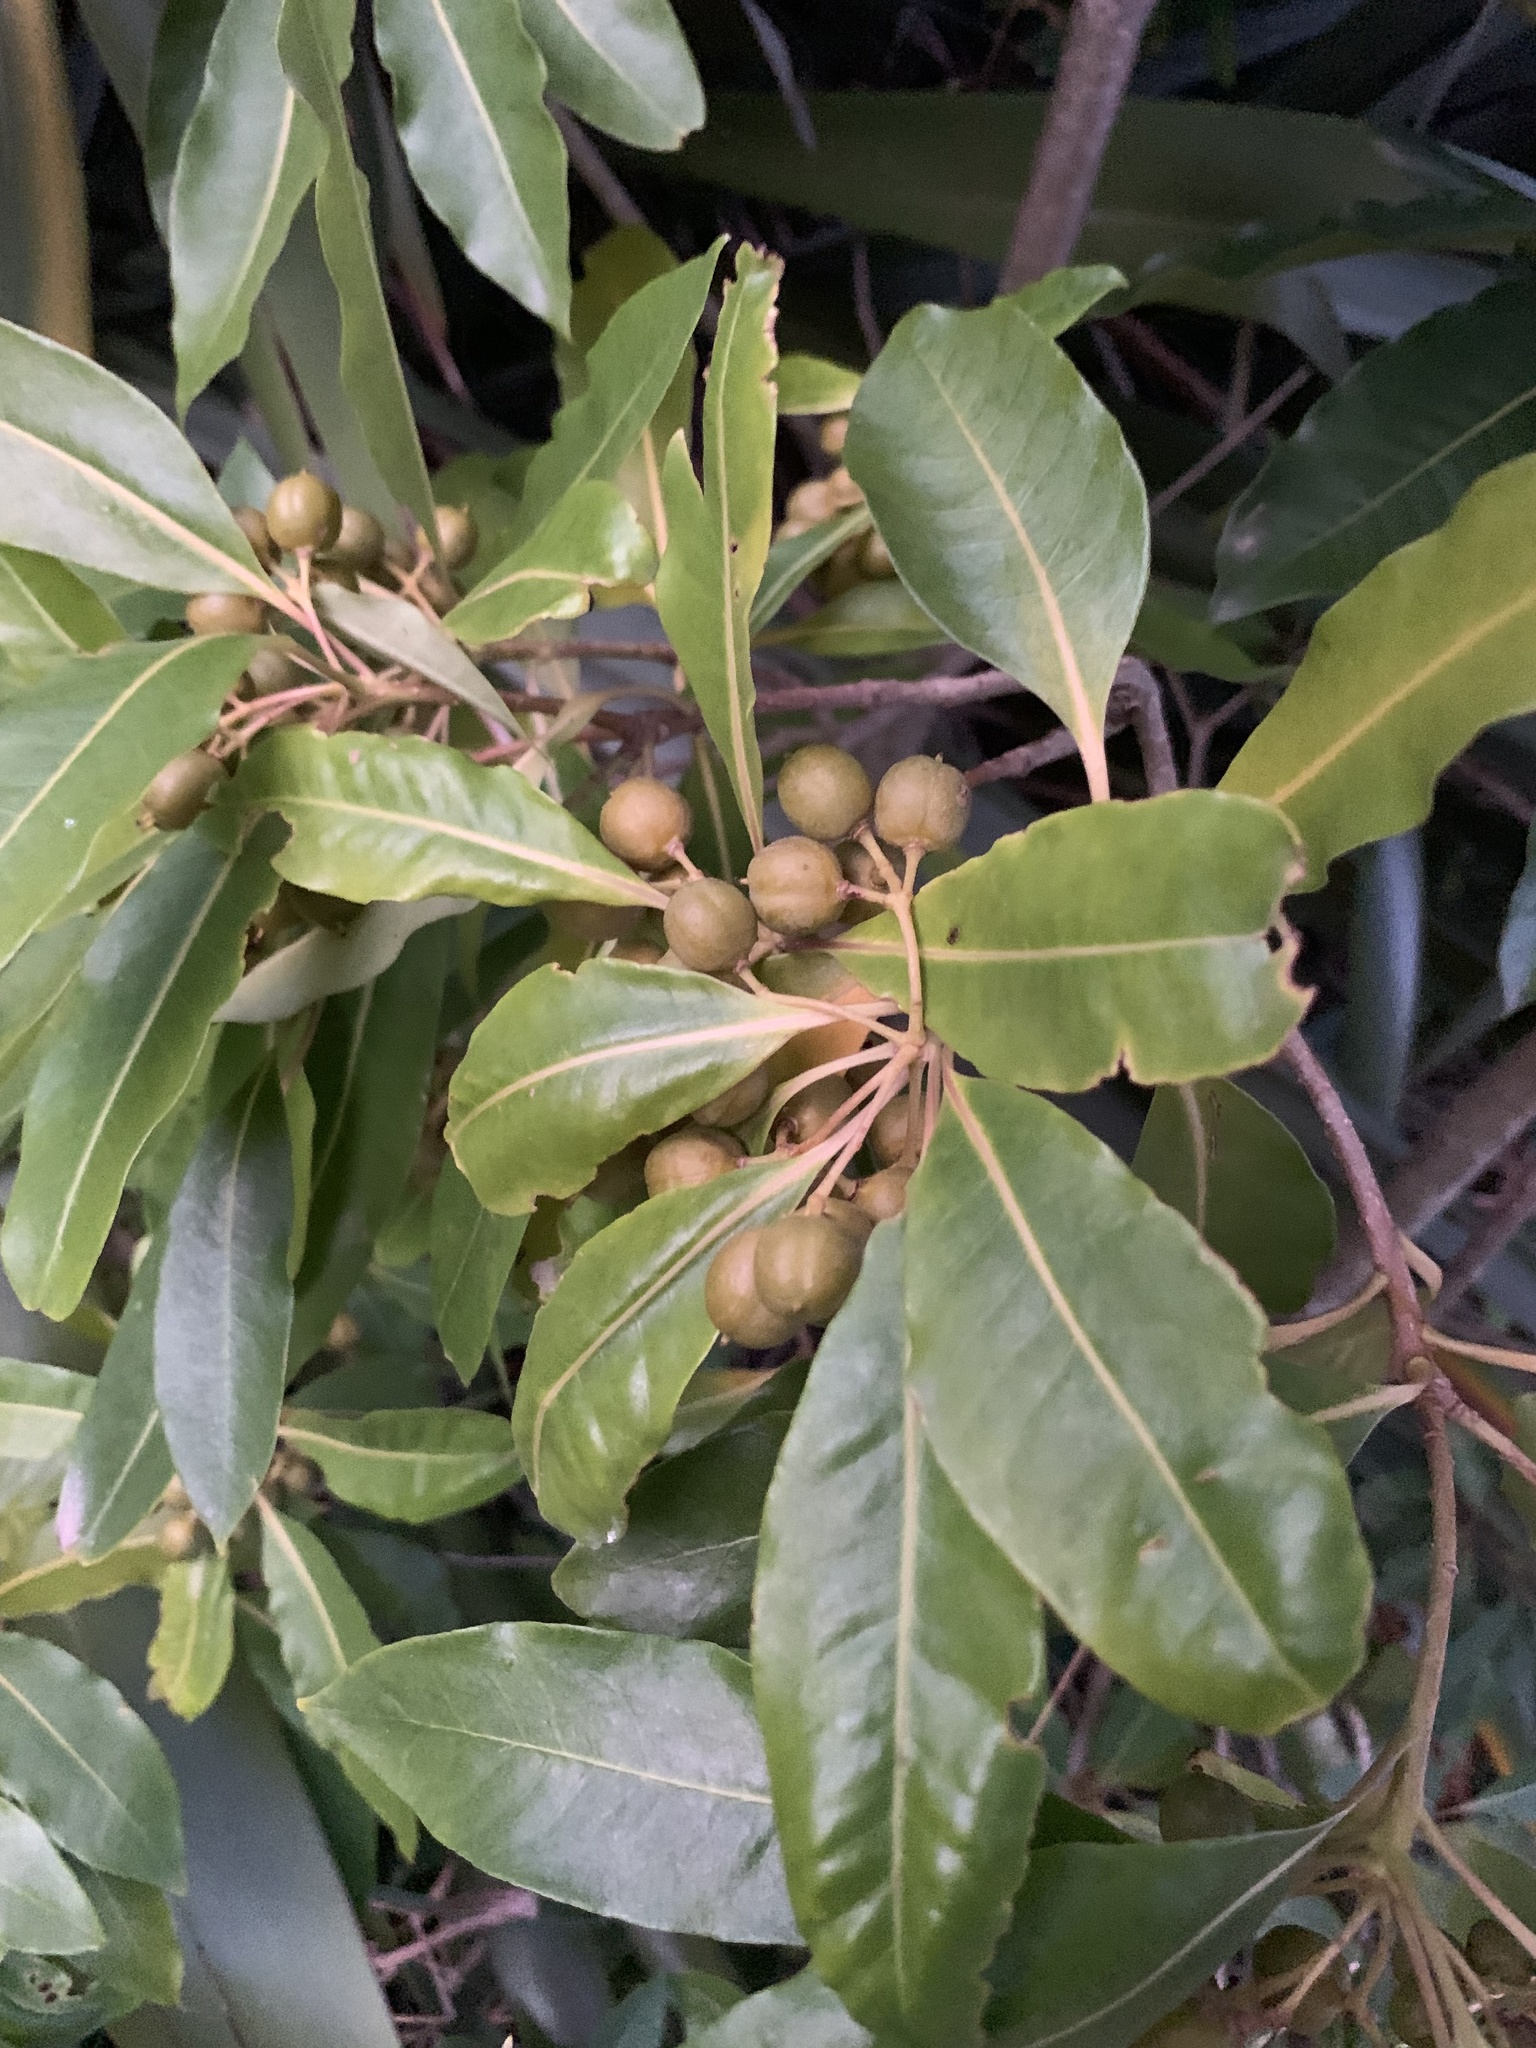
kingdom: Plantae
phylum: Tracheophyta
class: Magnoliopsida
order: Apiales
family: Pittosporaceae
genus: Pittosporum
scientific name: Pittosporum undulatum
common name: Australian cheesewood
